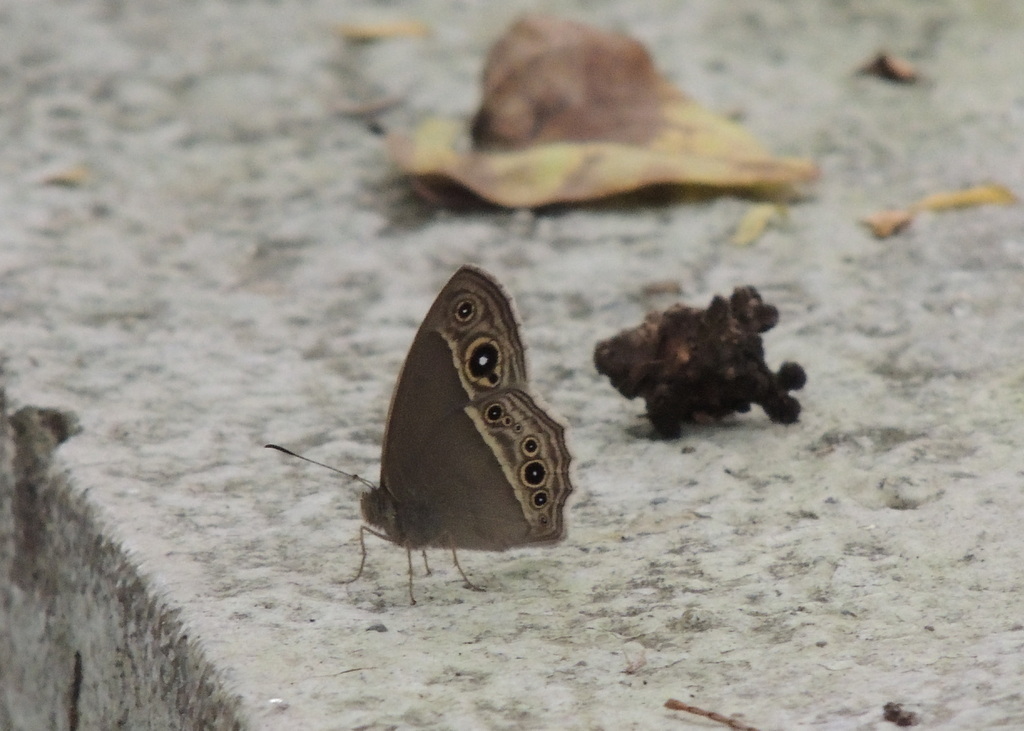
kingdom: Animalia
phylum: Arthropoda
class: Insecta
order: Lepidoptera
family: Nymphalidae
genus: Mycalesis
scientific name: Mycalesis
